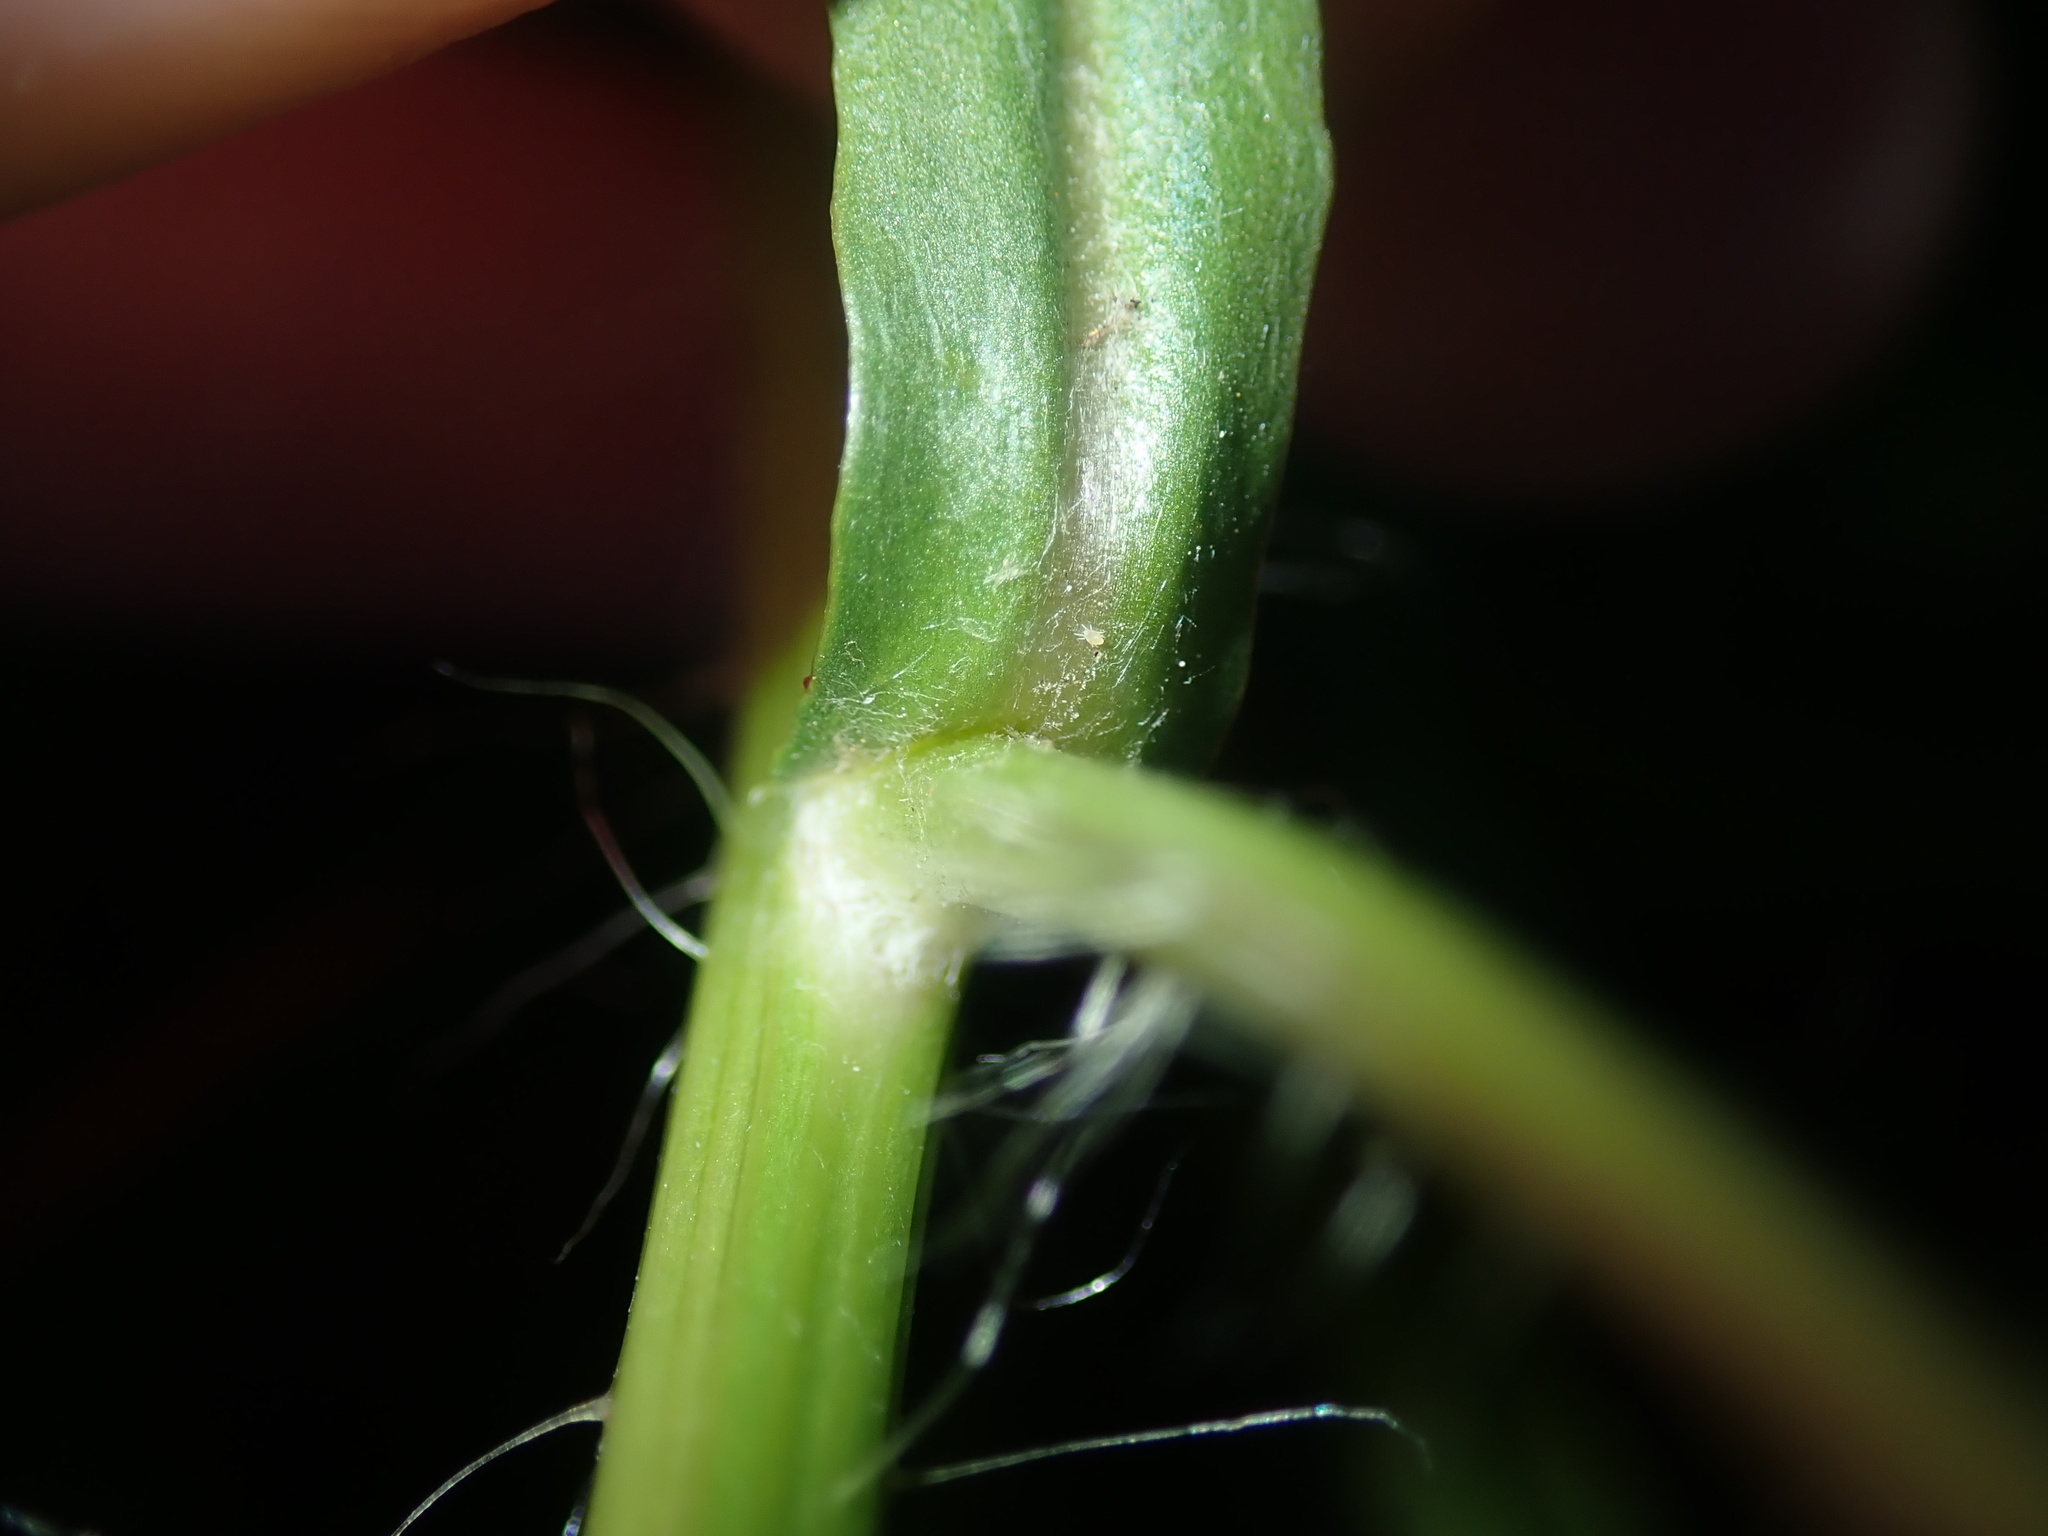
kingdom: Plantae
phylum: Tracheophyta
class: Magnoliopsida
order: Asterales
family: Asteraceae
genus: Hypochaeris
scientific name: Hypochaeris albiflora
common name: White flatweed
